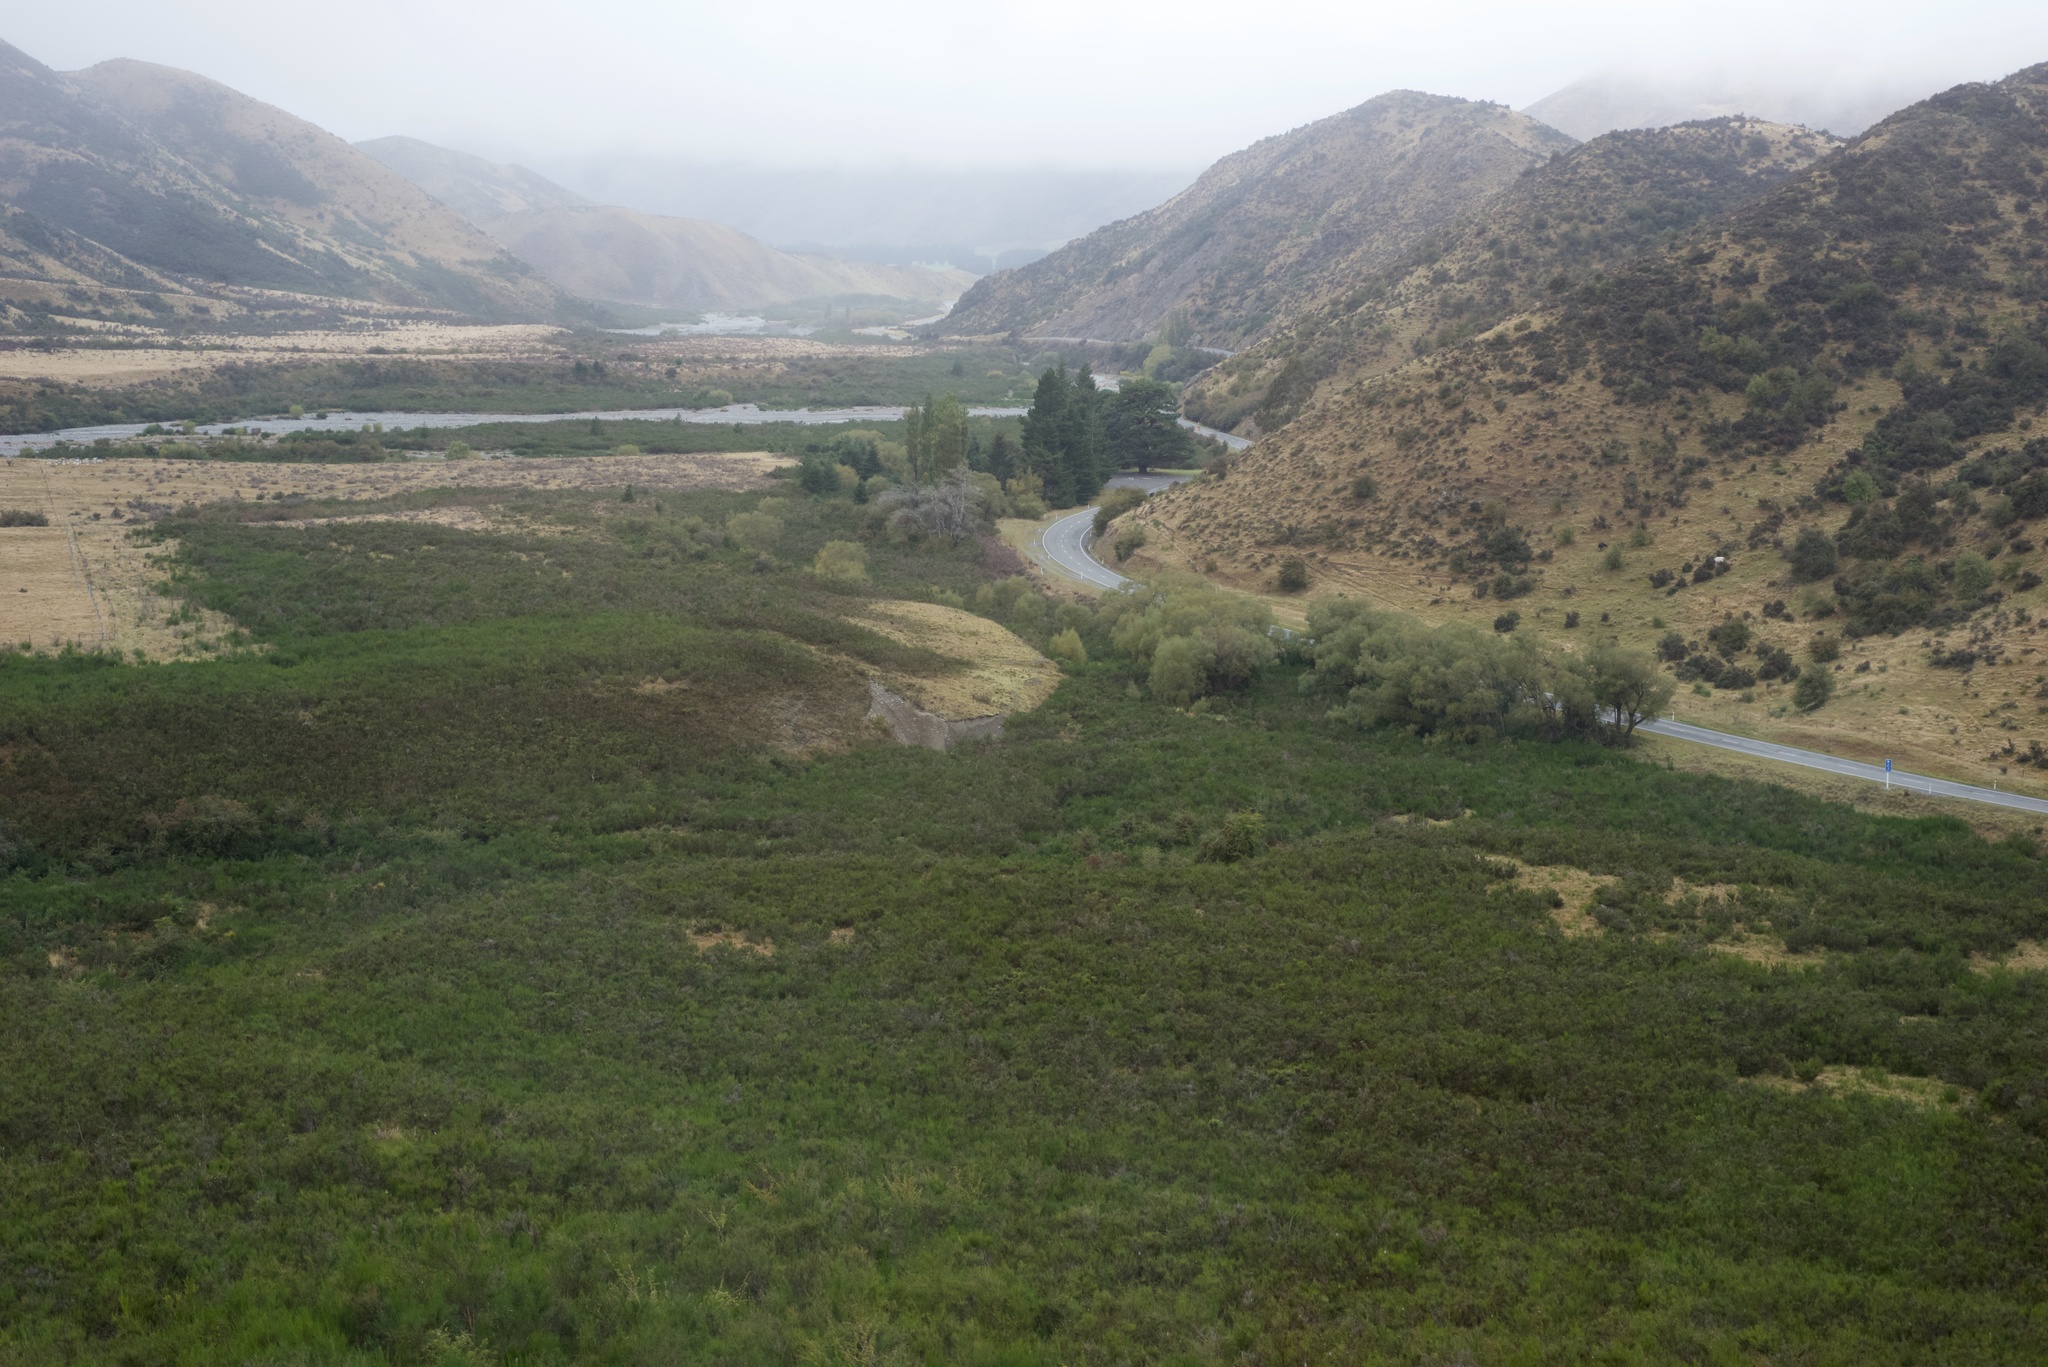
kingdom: Plantae
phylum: Tracheophyta
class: Magnoliopsida
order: Fabales
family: Fabaceae
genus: Cytisus
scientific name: Cytisus scoparius
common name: Scotch broom
